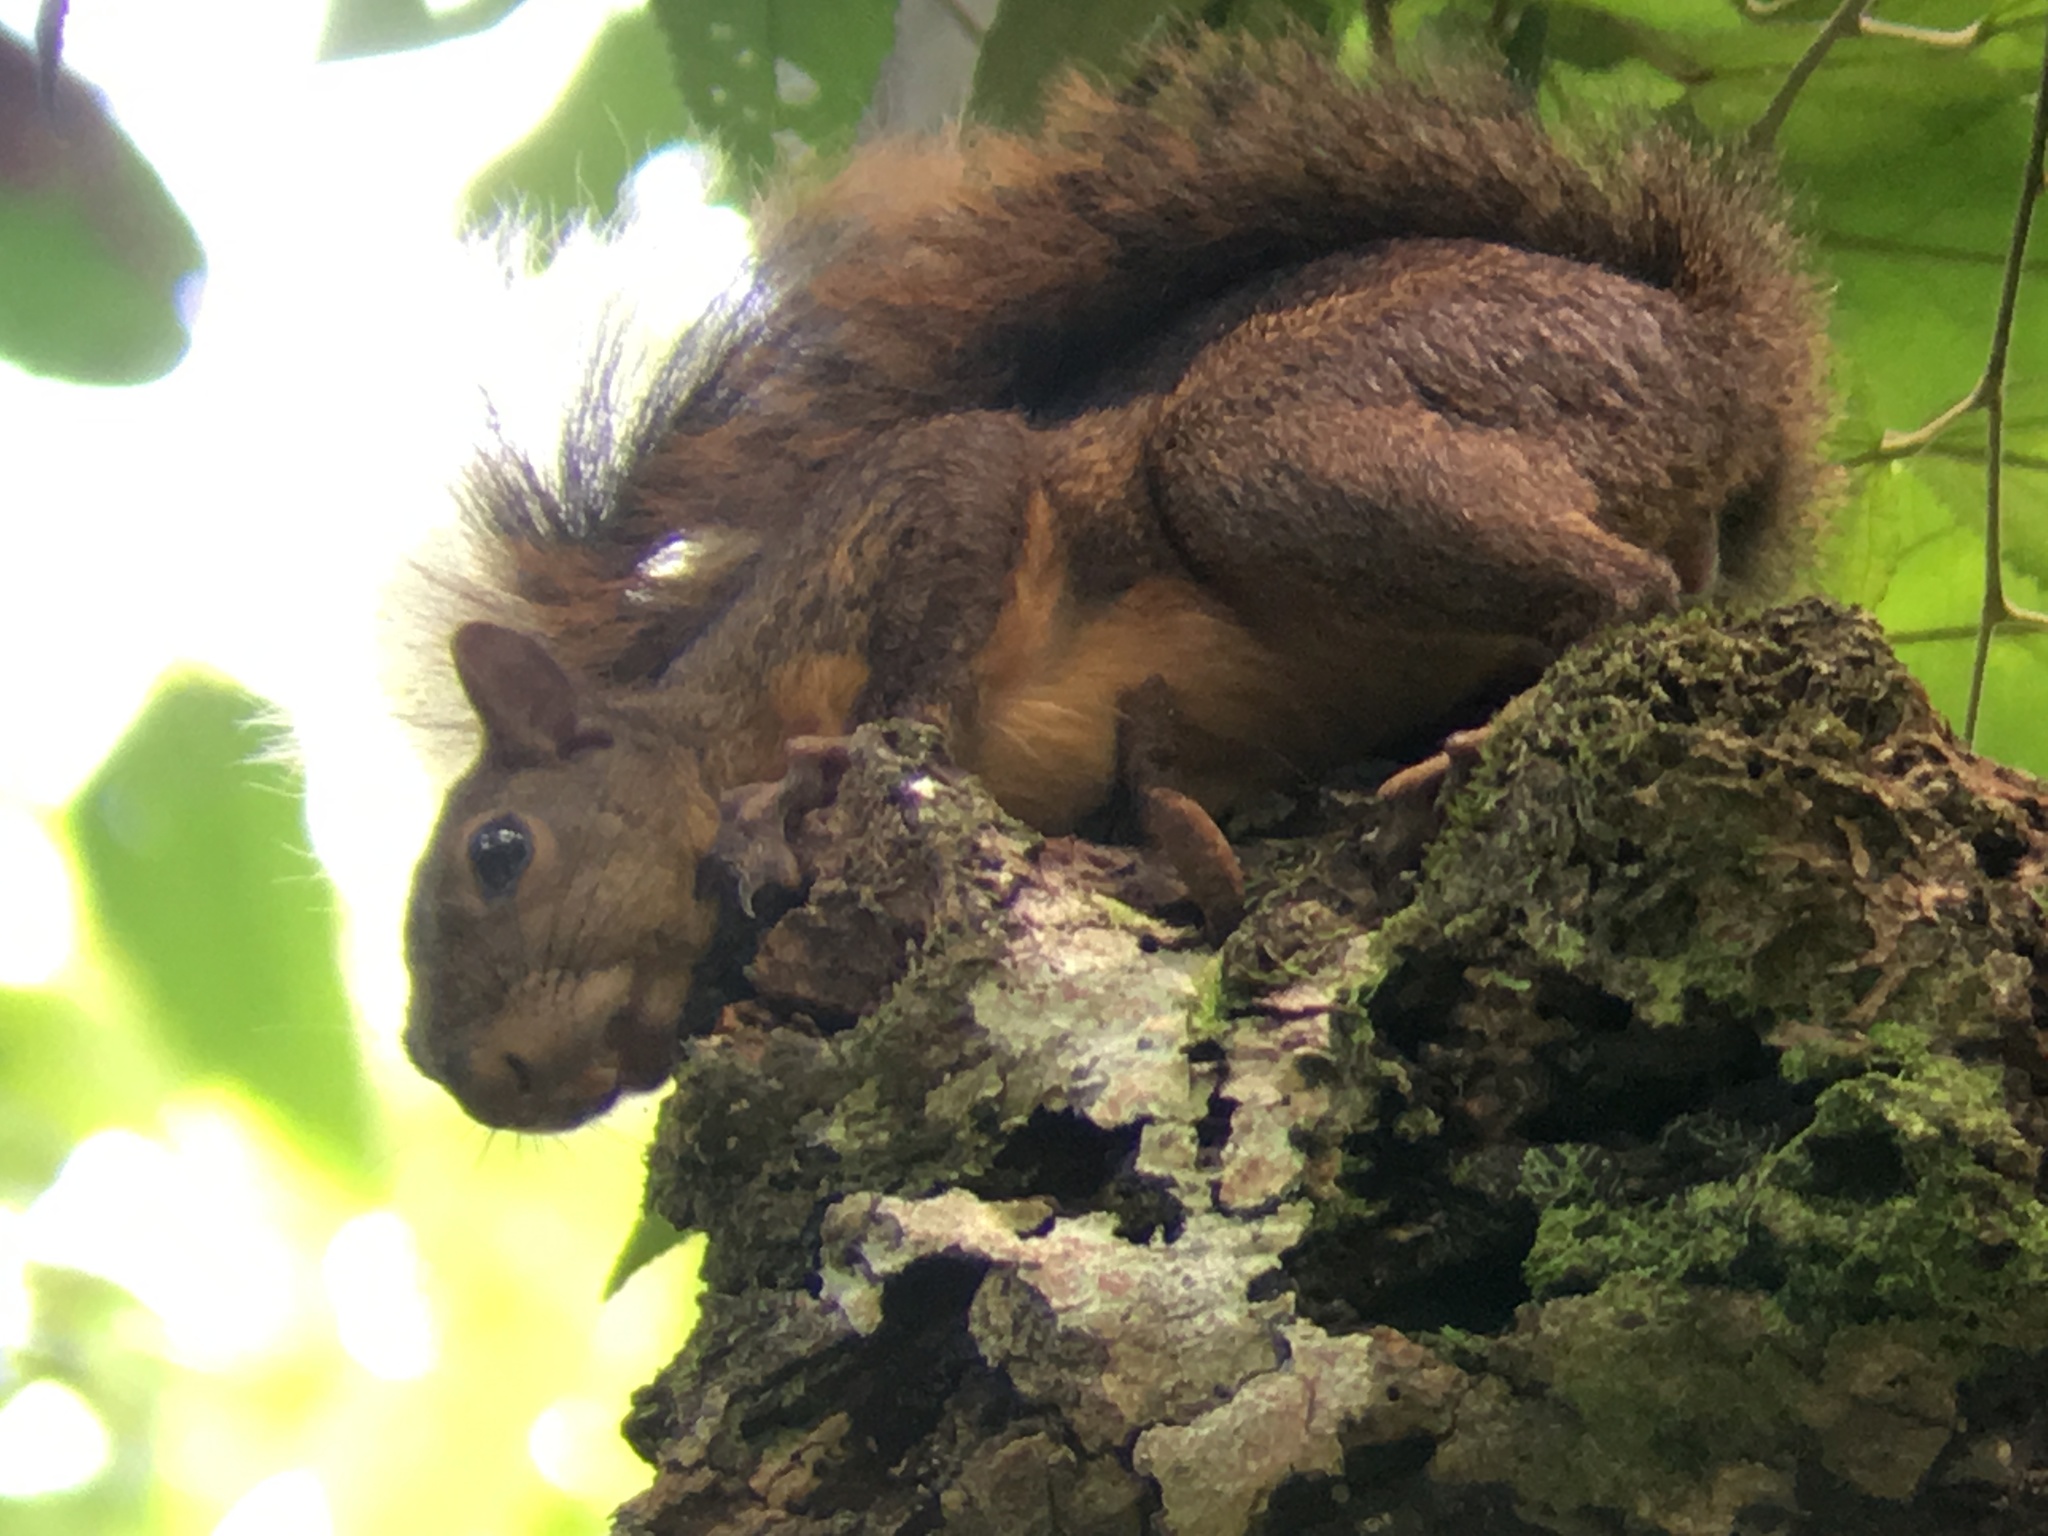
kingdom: Animalia
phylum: Chordata
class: Mammalia
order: Rodentia
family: Sciuridae
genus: Sciurus
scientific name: Sciurus granatensis
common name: Red-tailed squirrel
